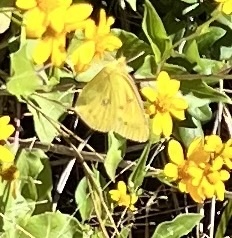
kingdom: Animalia
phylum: Arthropoda
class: Insecta
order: Lepidoptera
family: Pieridae
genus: Colias
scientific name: Colias eurytheme
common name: Alfalfa butterfly
